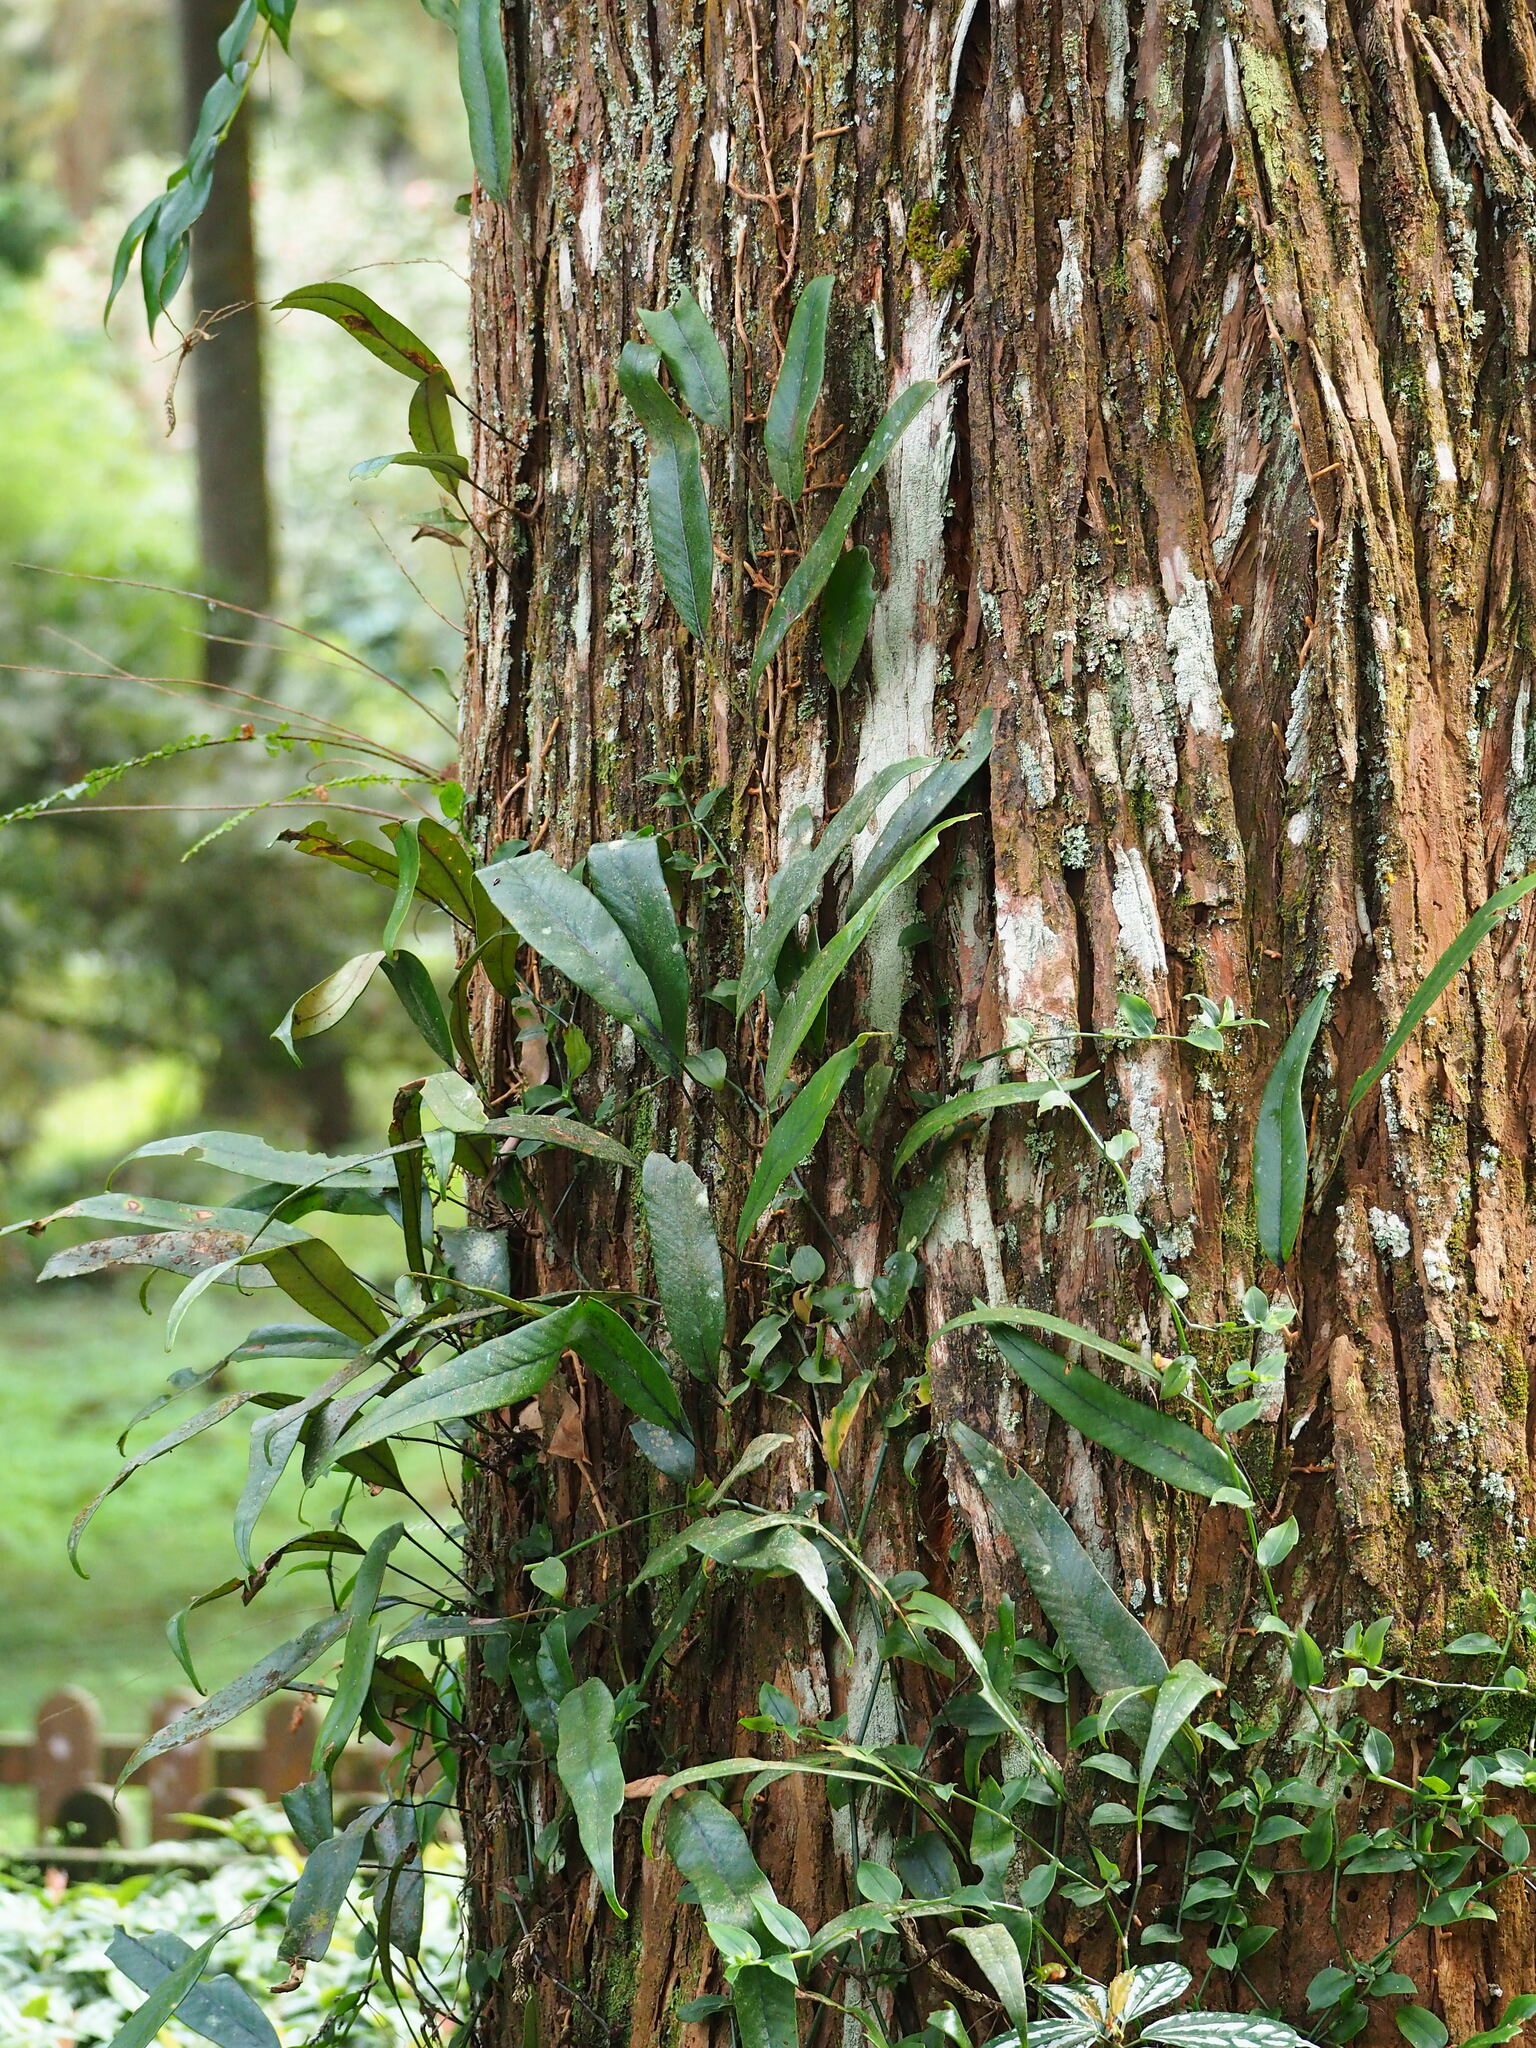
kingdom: Plantae
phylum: Tracheophyta
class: Polypodiopsida
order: Polypodiales
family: Polypodiaceae
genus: Pyrrosia
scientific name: Pyrrosia lingua
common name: Felt fern
